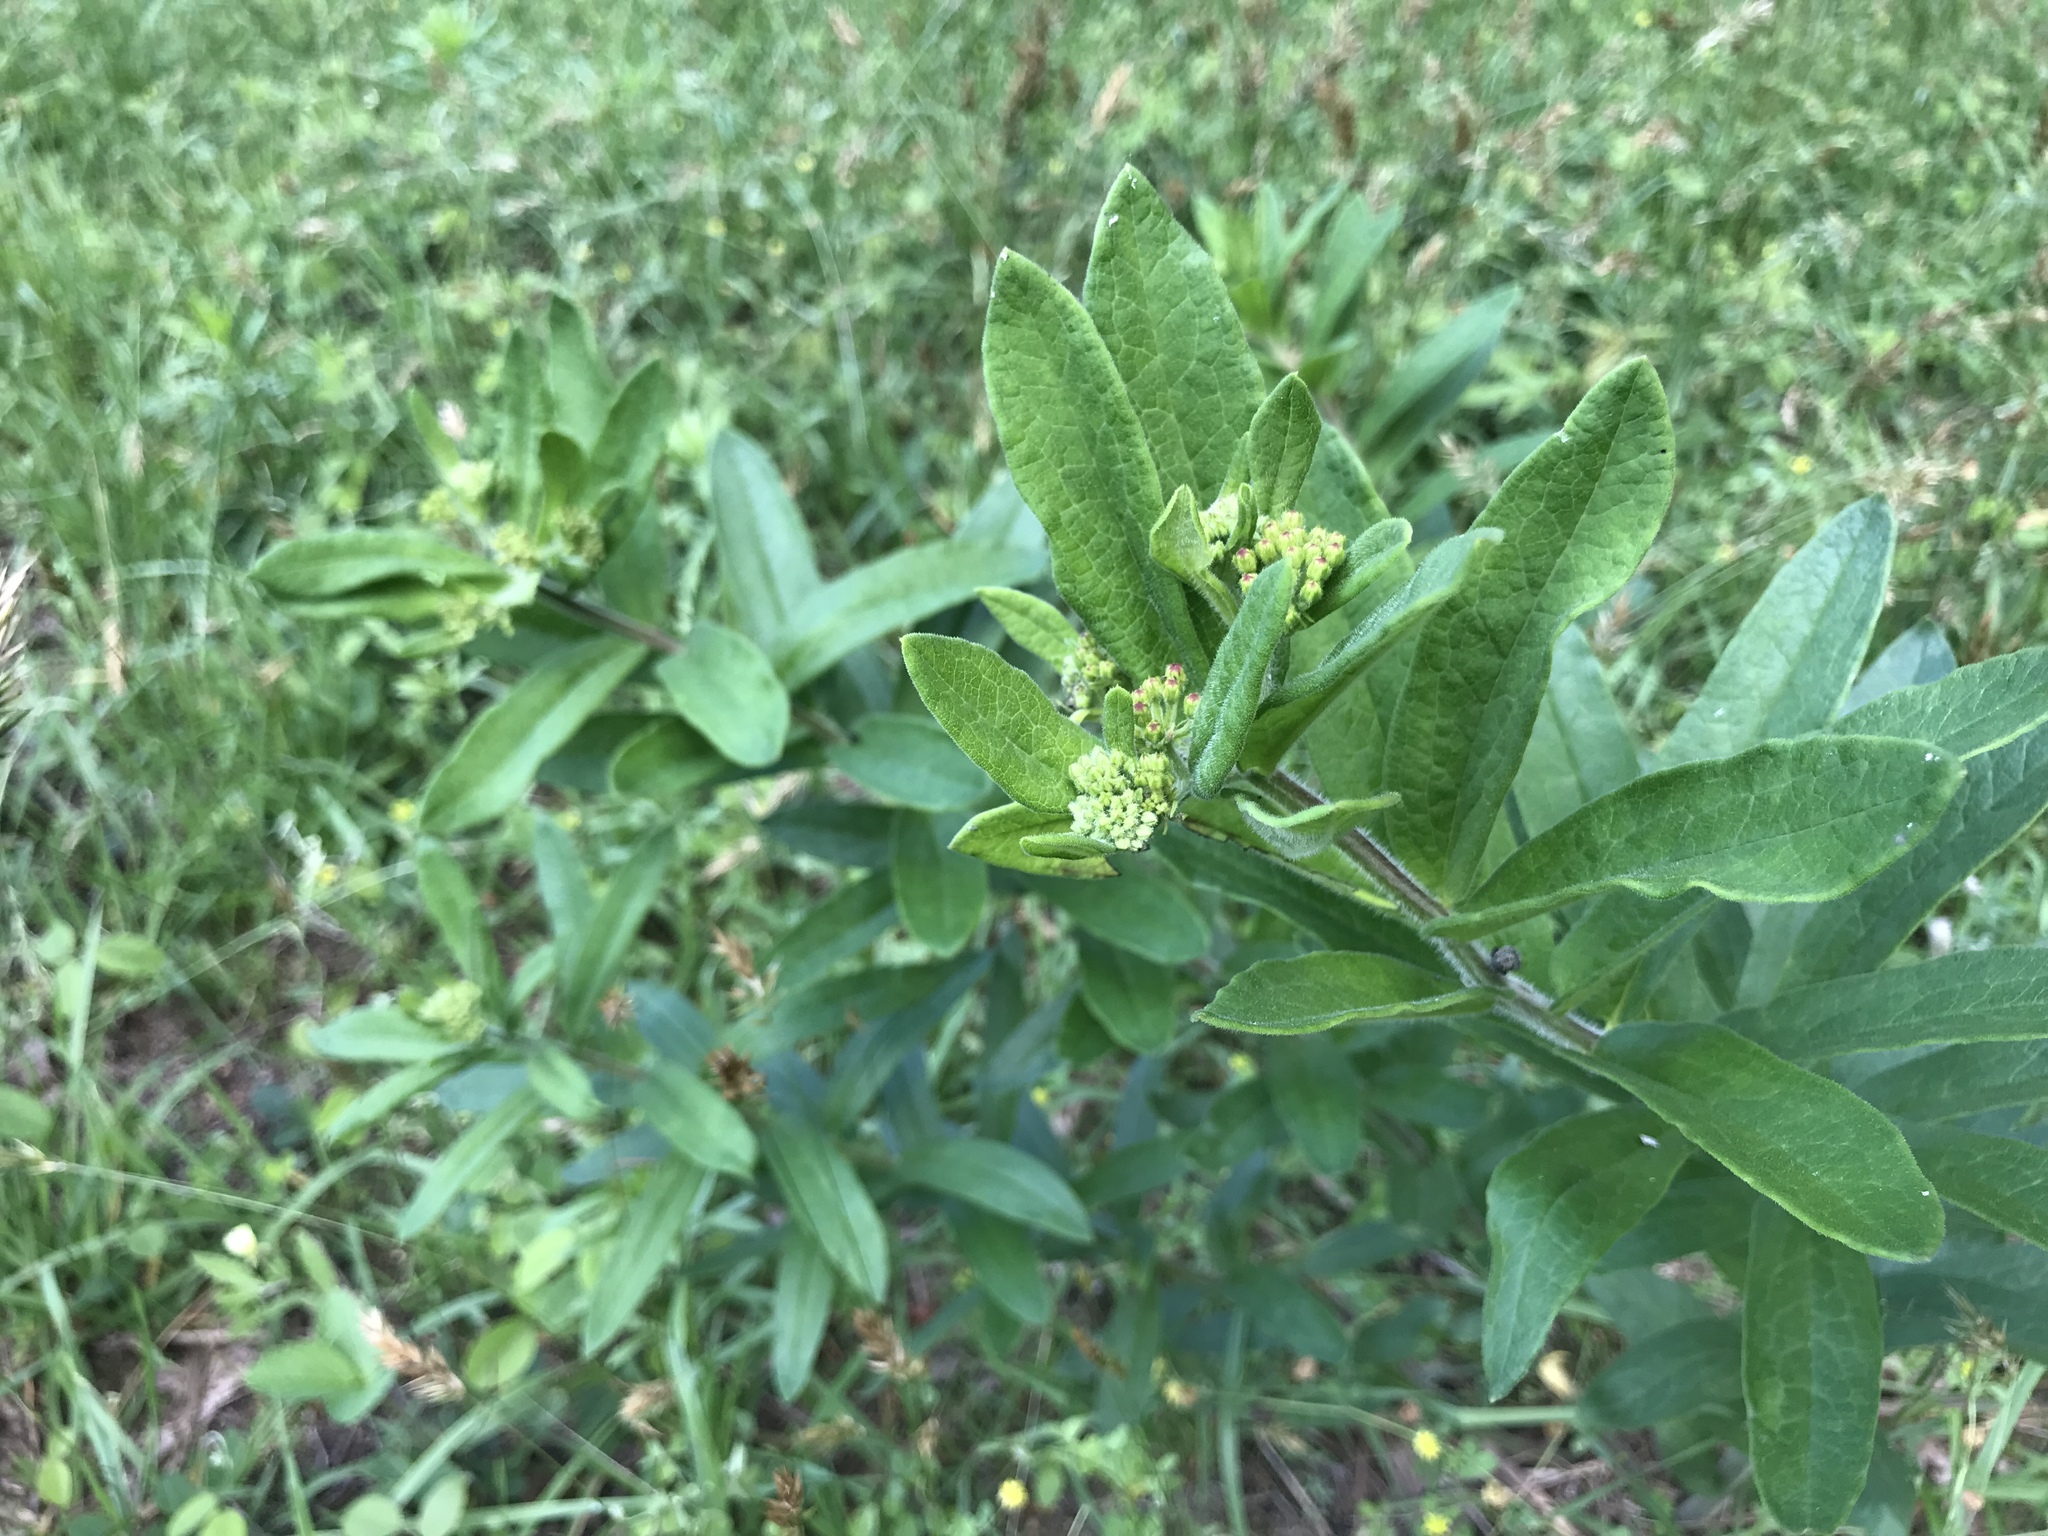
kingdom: Plantae
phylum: Tracheophyta
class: Magnoliopsida
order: Gentianales
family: Apocynaceae
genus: Asclepias
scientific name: Asclepias tuberosa
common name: Butterfly milkweed
